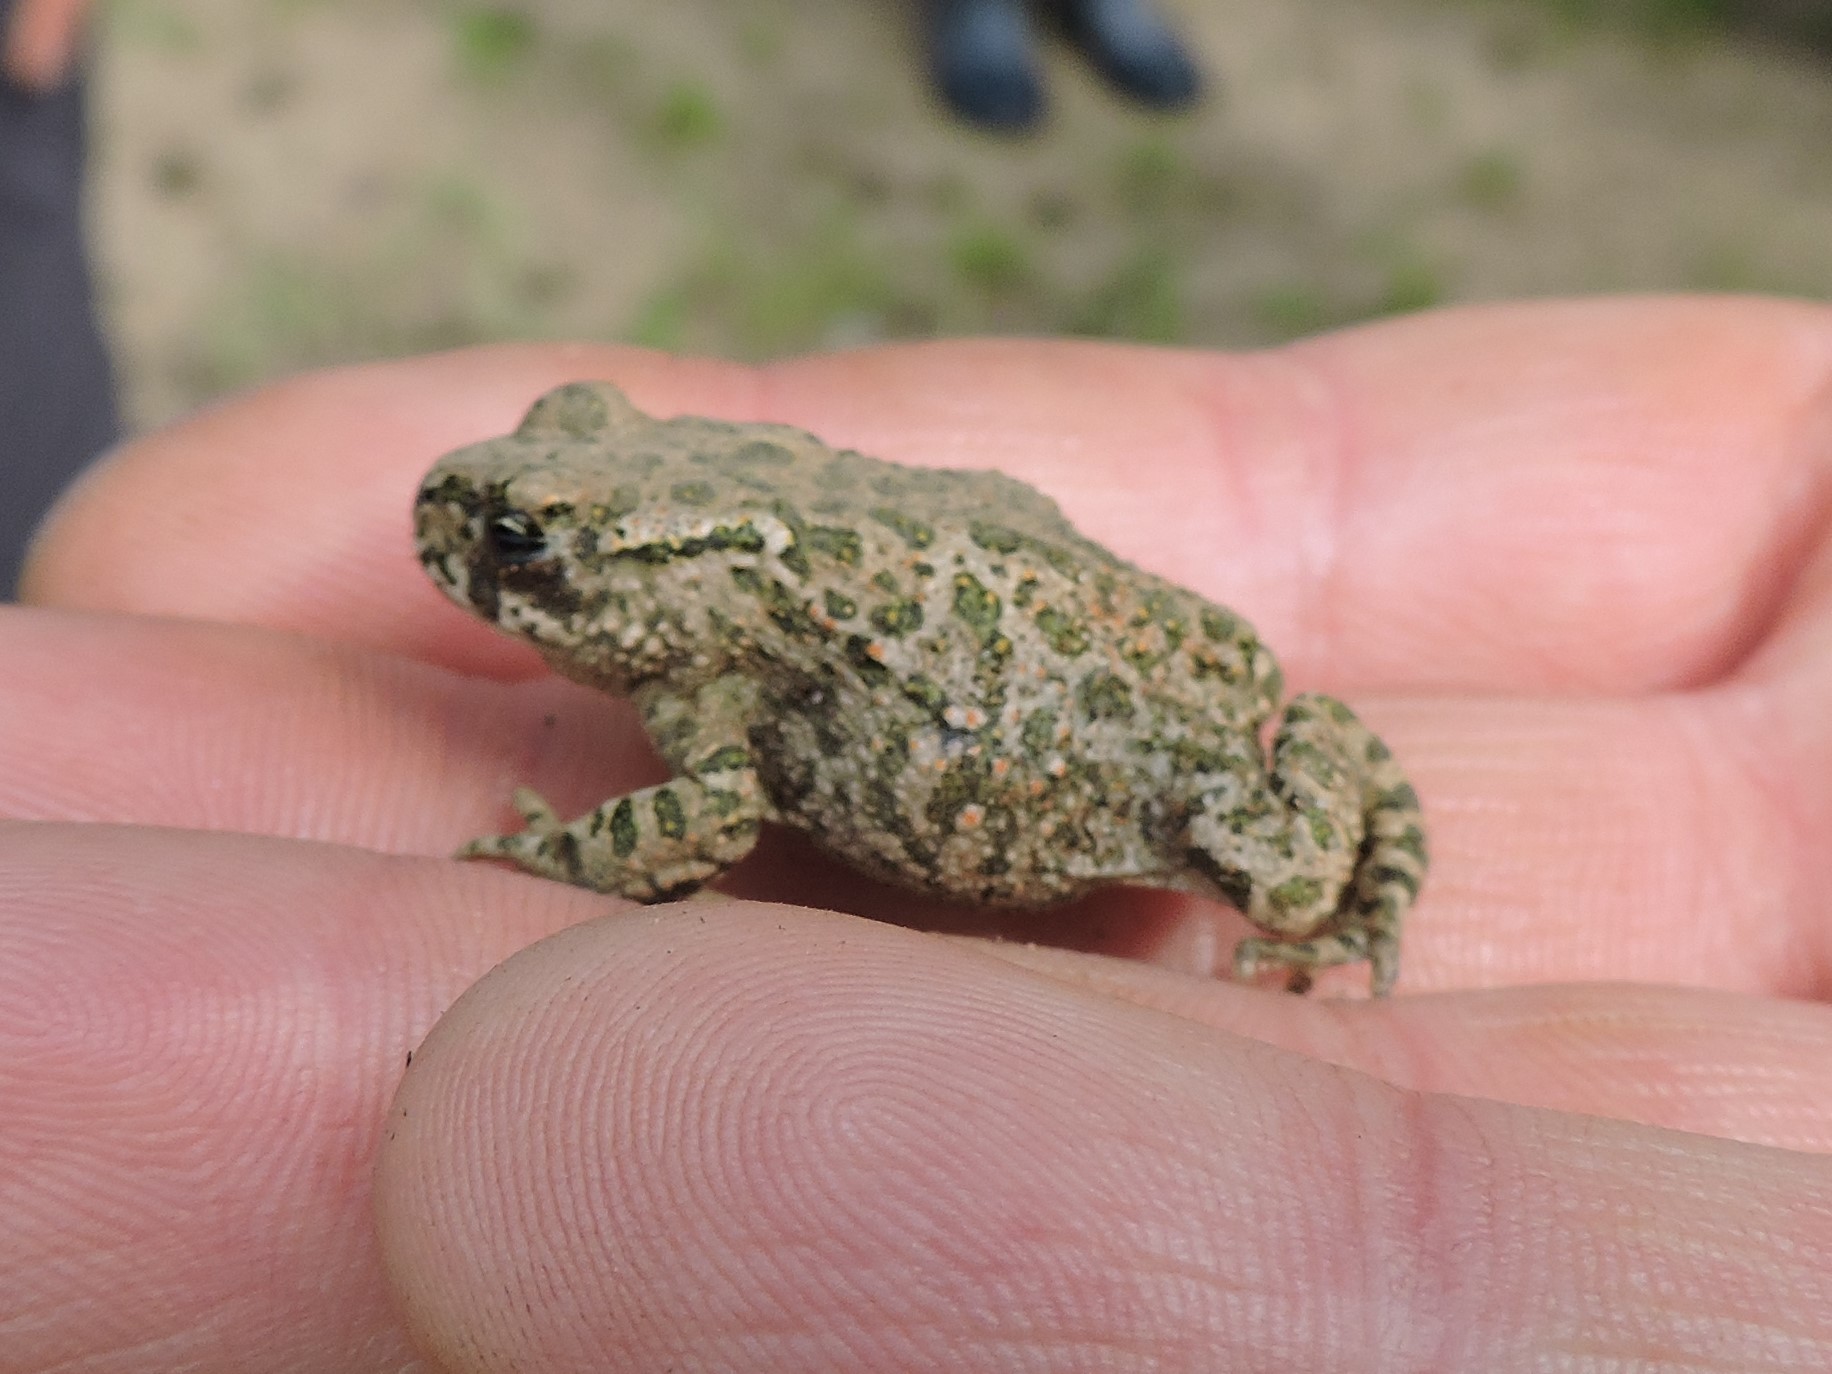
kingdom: Animalia
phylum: Chordata
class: Amphibia
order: Anura
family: Bufonidae
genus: Bufotes
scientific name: Bufotes viridis
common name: European green toad
